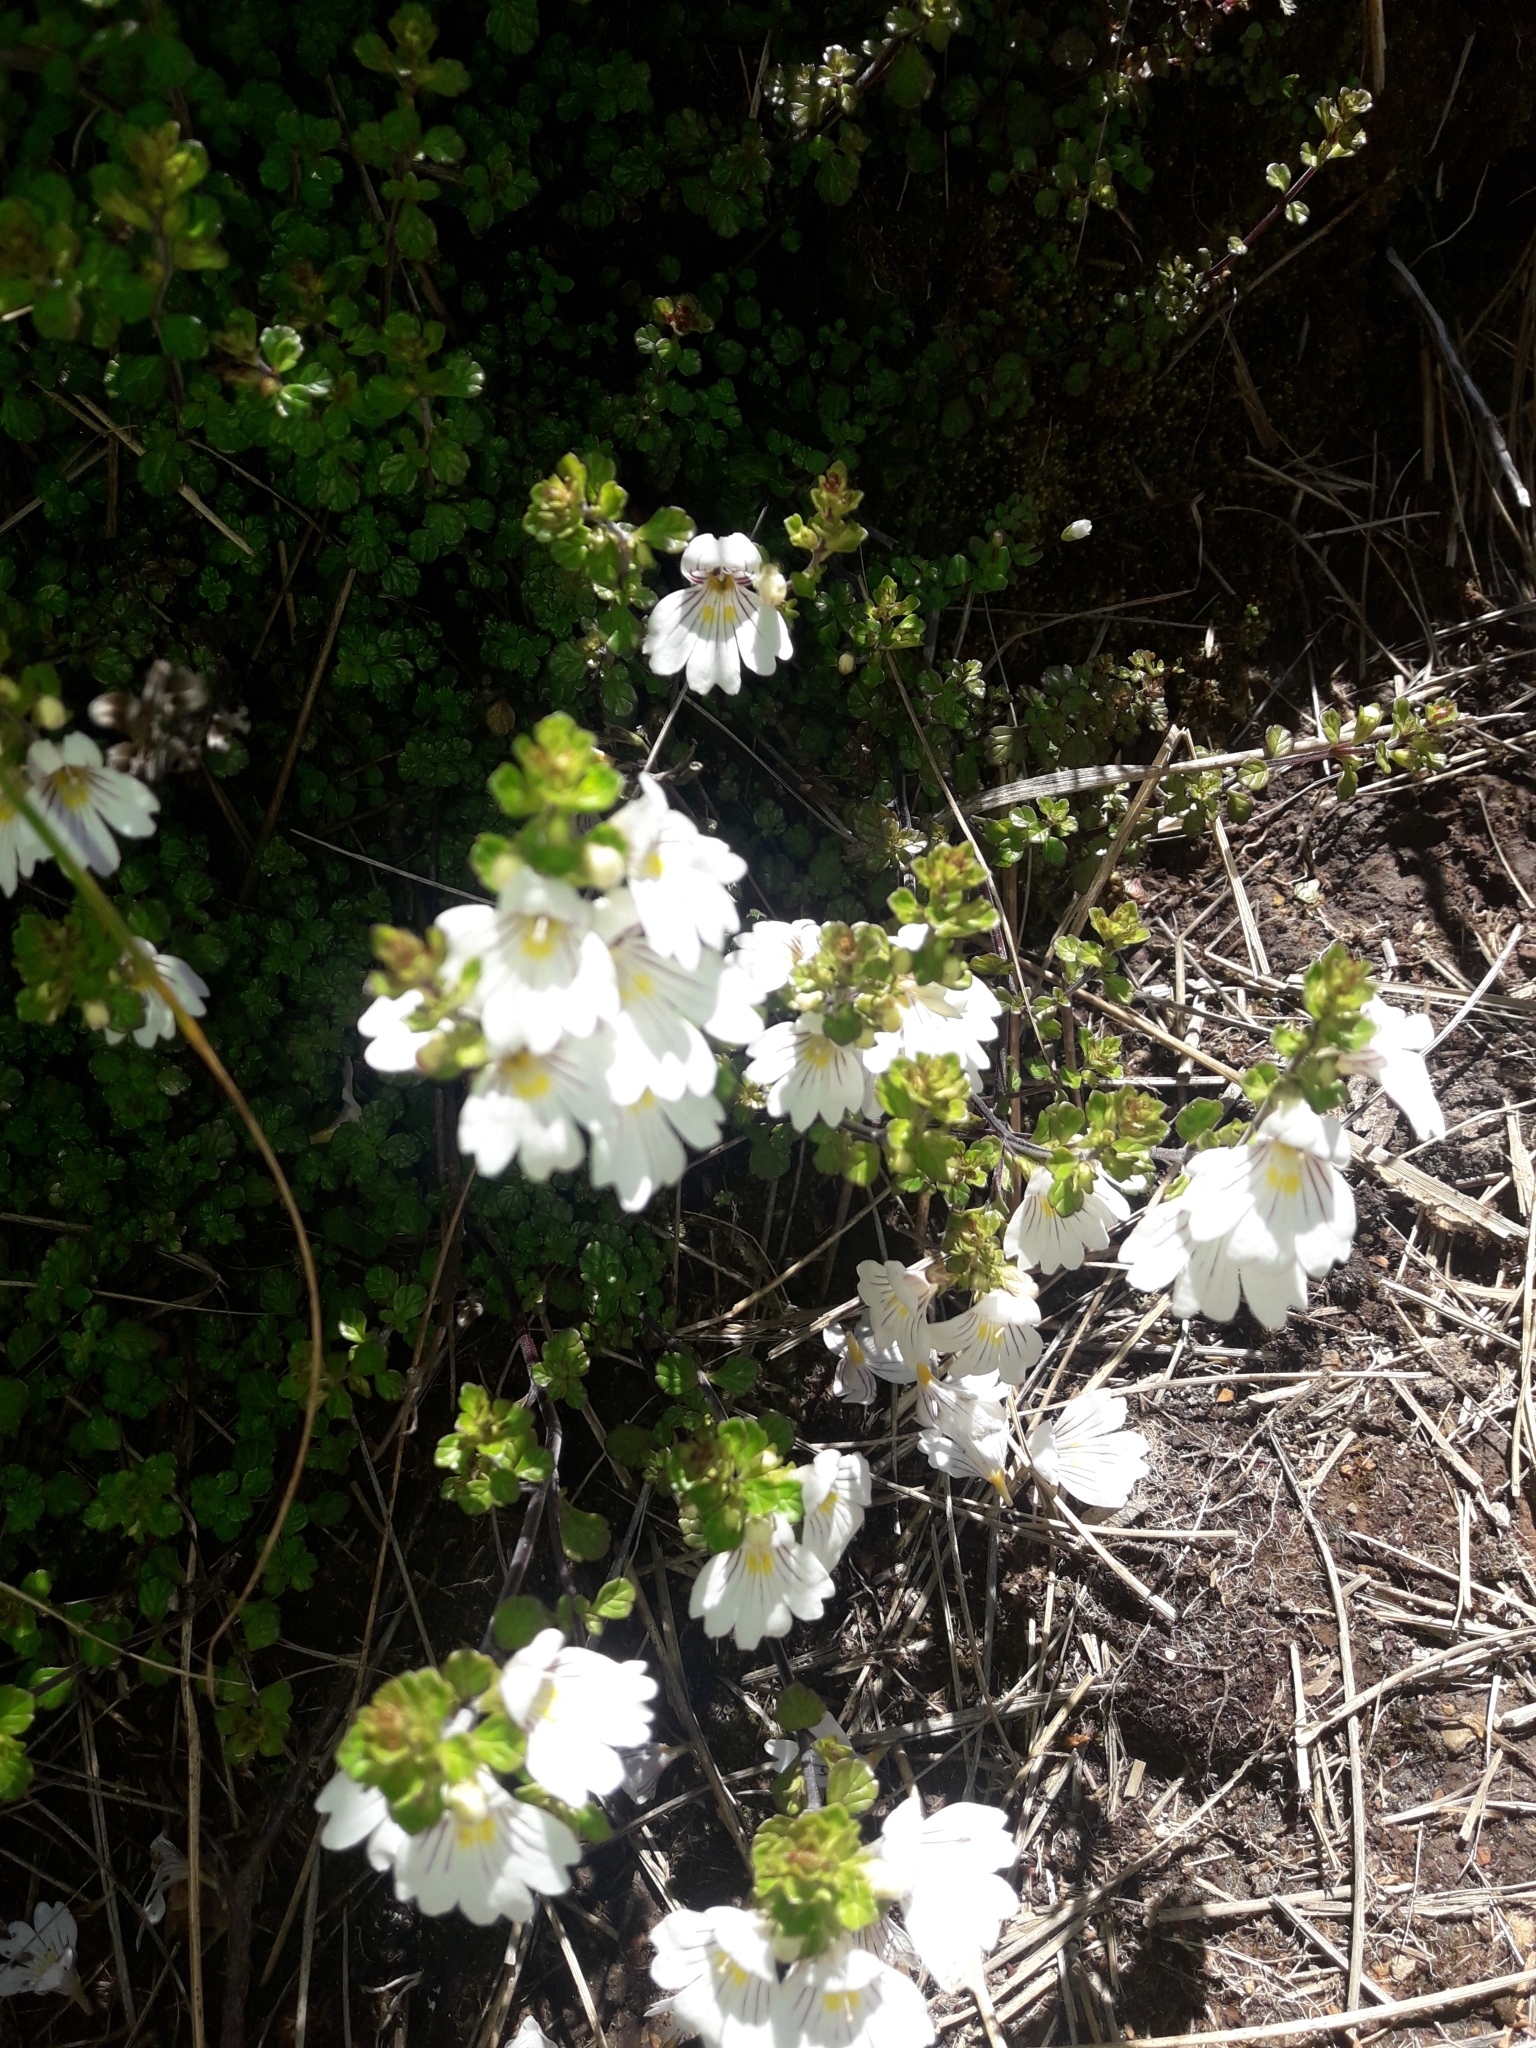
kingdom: Plantae
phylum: Tracheophyta
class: Magnoliopsida
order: Lamiales
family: Orobanchaceae
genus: Euphrasia
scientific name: Euphrasia cuneata
